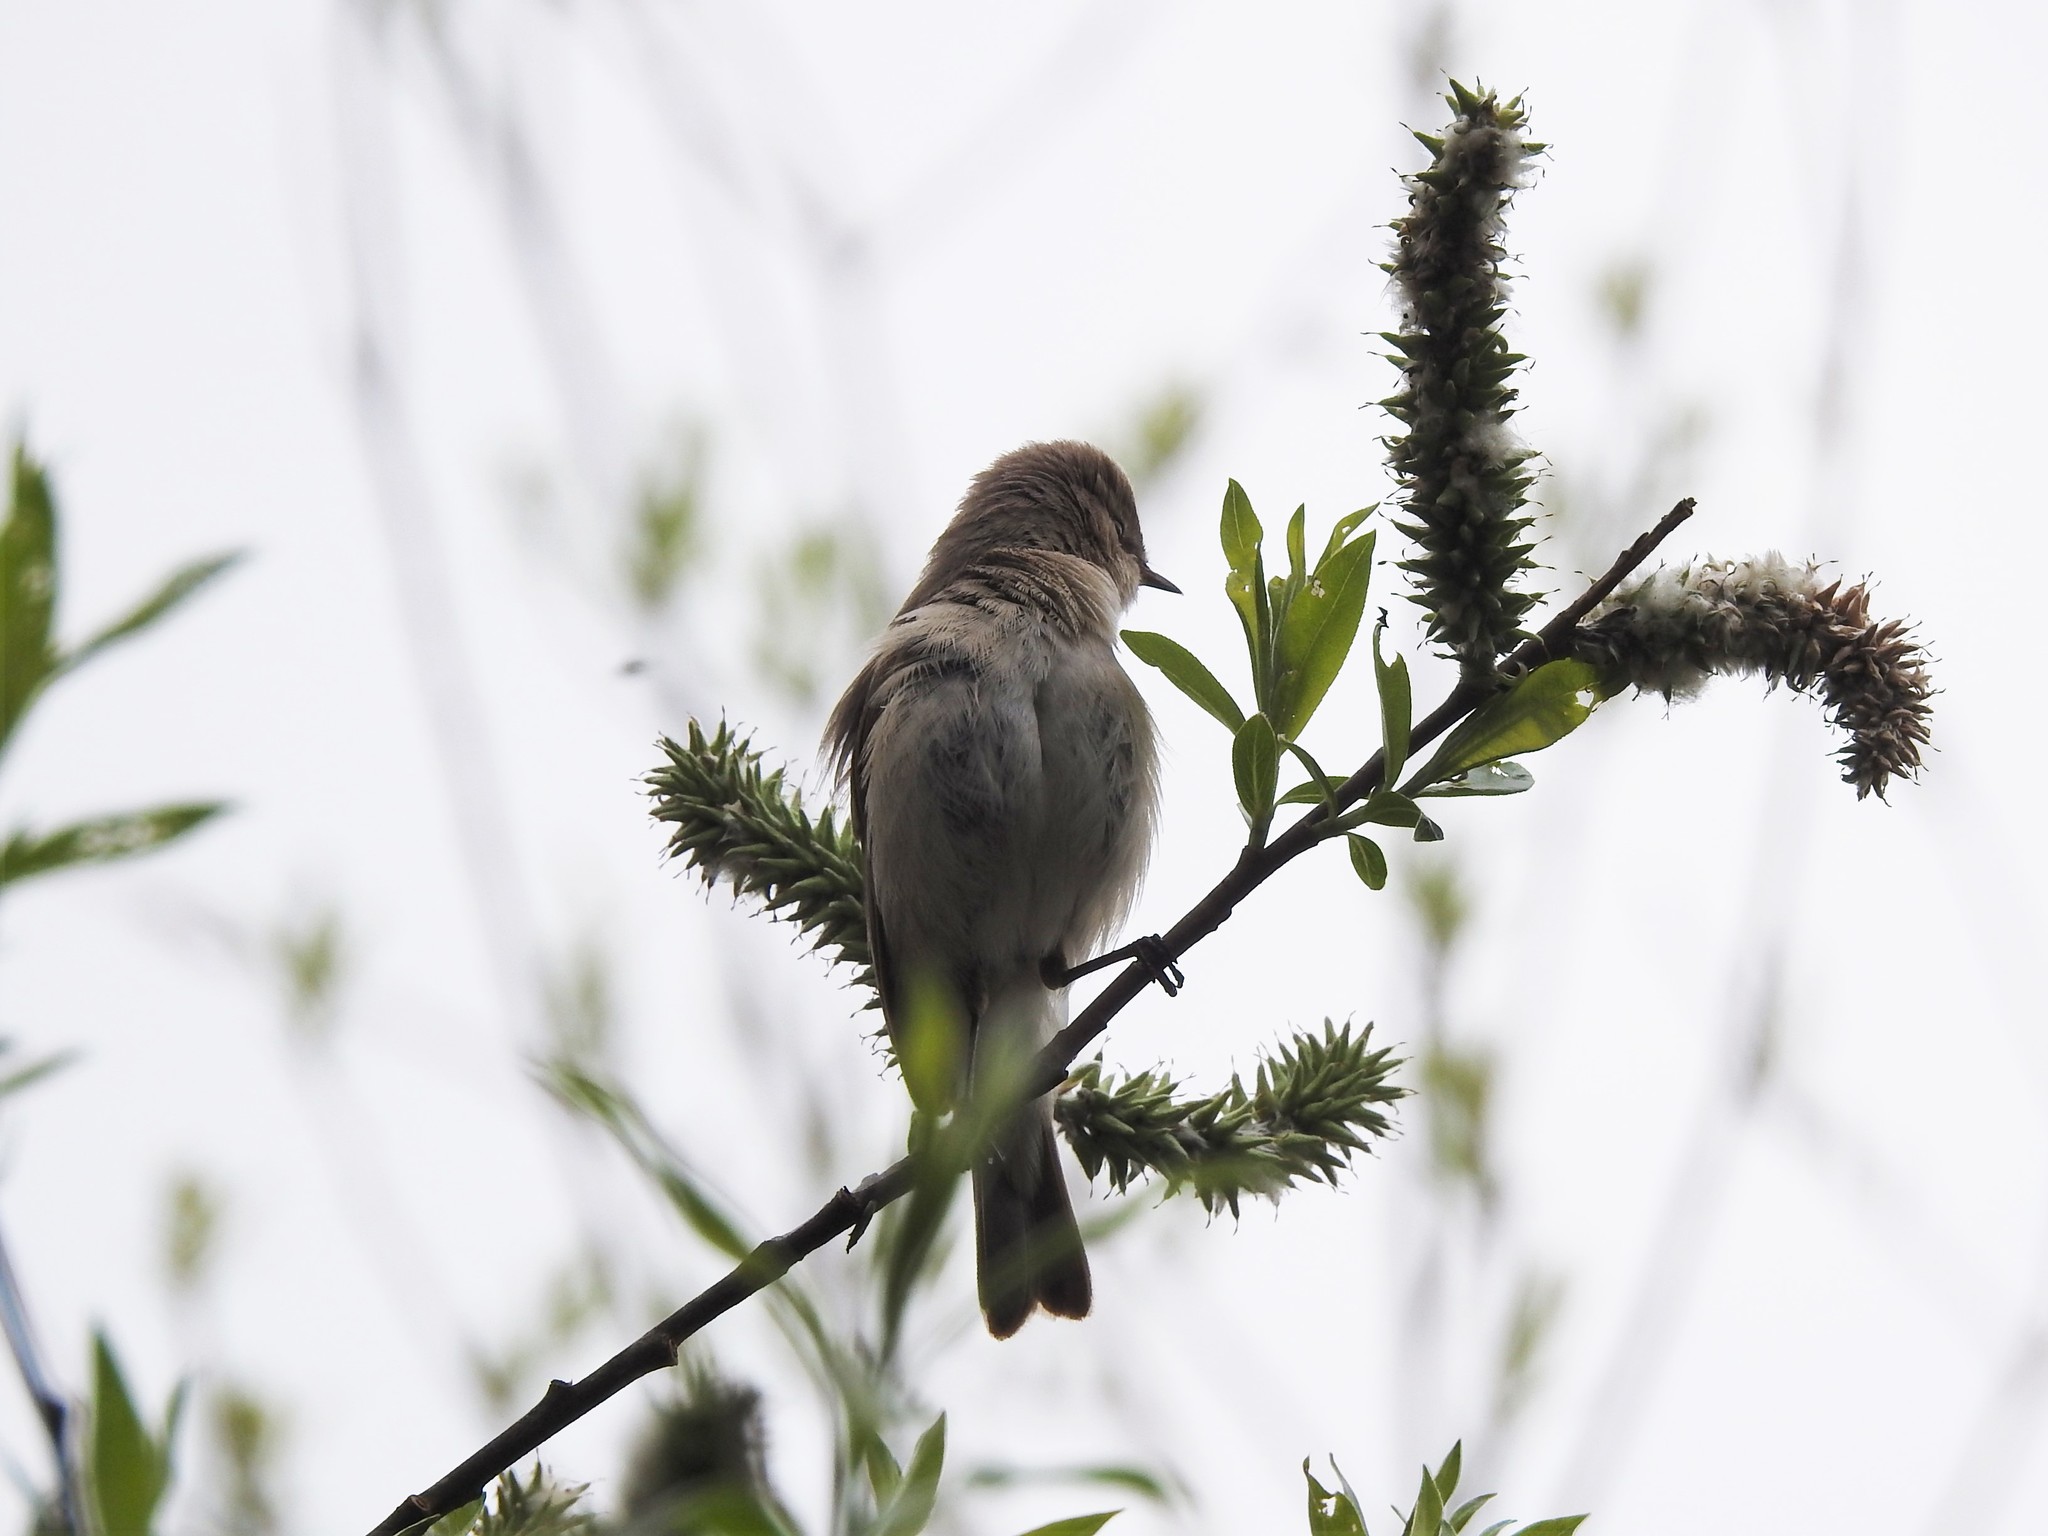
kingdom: Animalia
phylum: Chordata
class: Aves
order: Passeriformes
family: Phylloscopidae
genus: Phylloscopus
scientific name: Phylloscopus collybita
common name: Common chiffchaff
